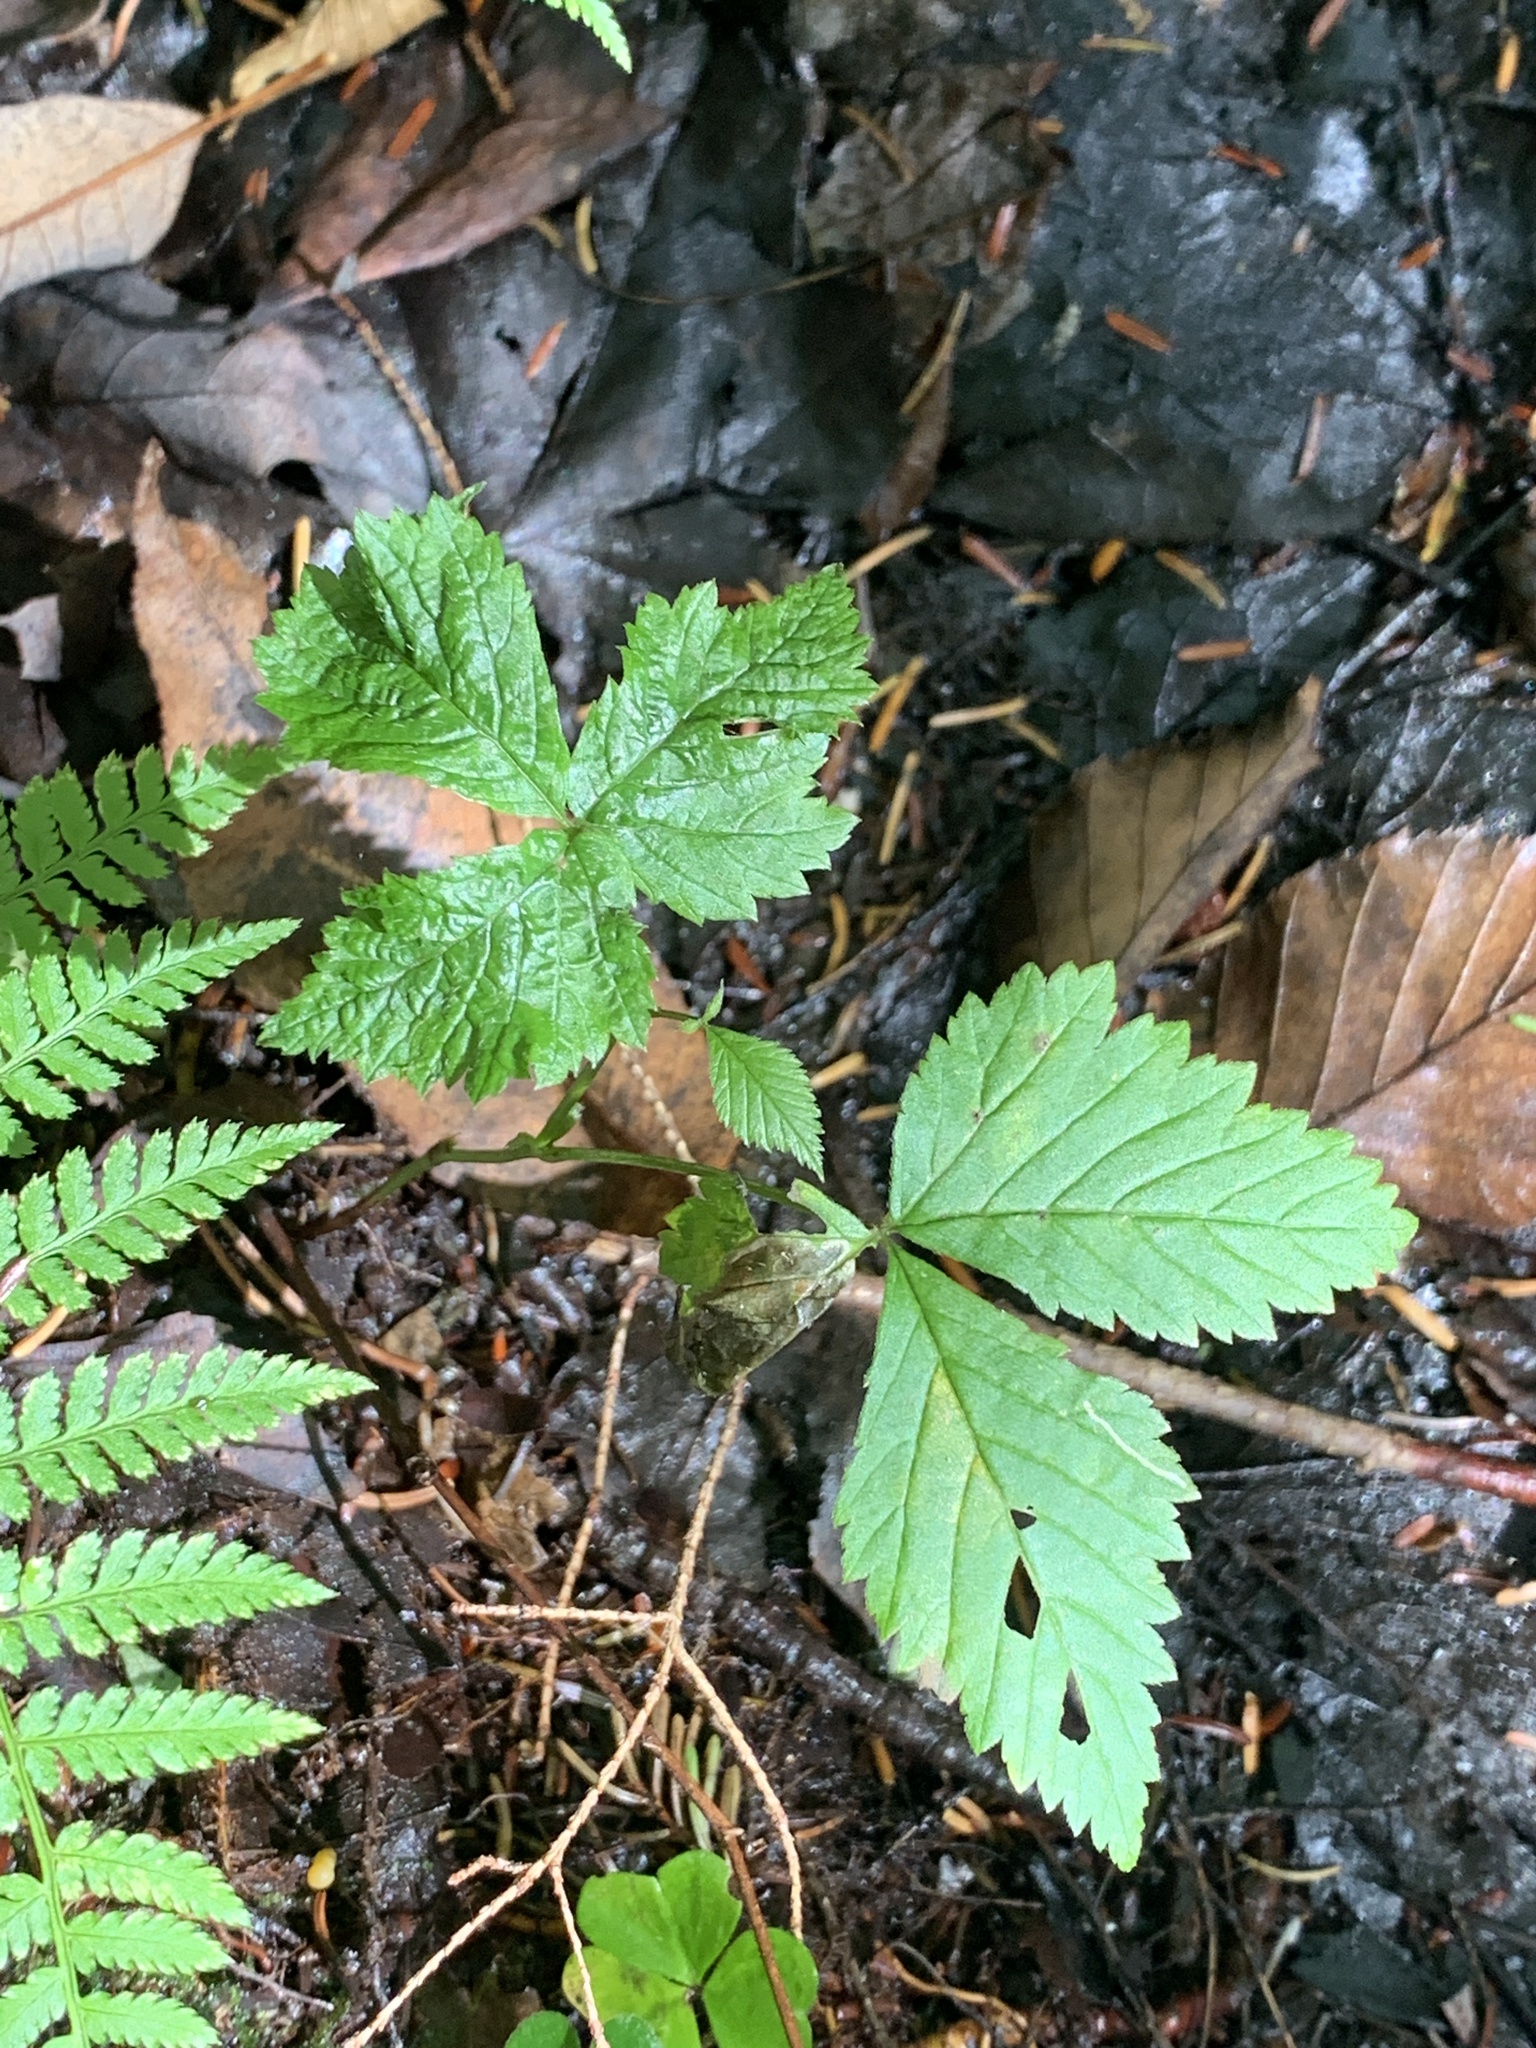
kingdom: Plantae
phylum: Tracheophyta
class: Magnoliopsida
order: Rosales
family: Rosaceae
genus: Rubus
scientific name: Rubus pubescens
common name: Dwarf raspberry
